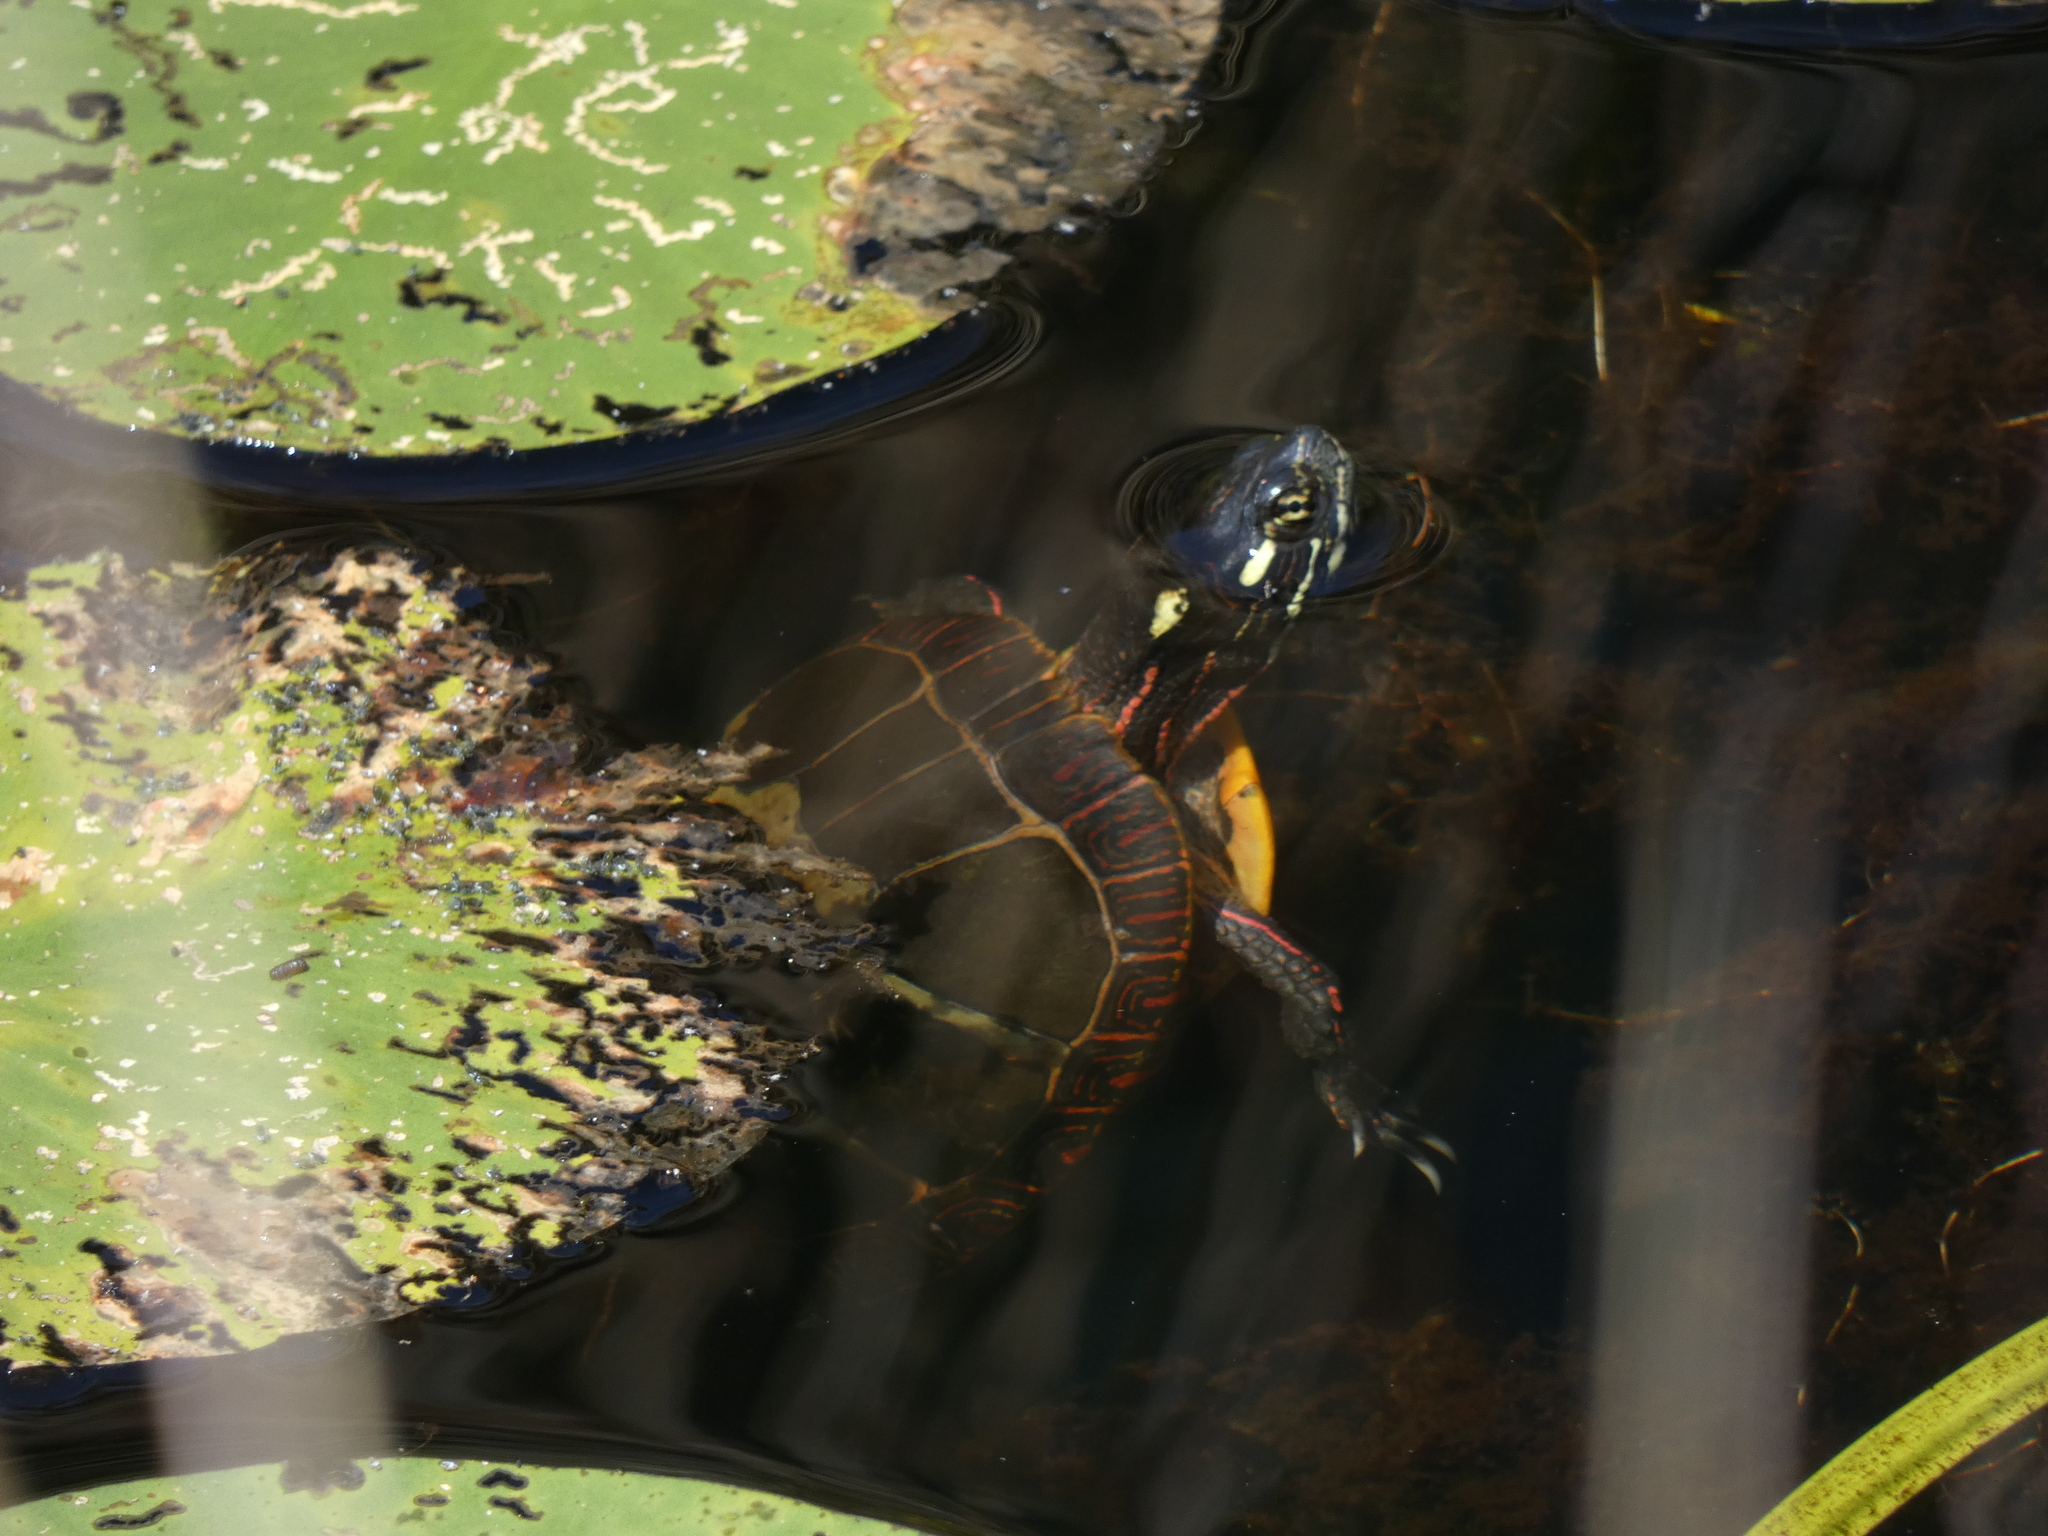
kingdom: Animalia
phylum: Chordata
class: Testudines
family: Emydidae
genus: Chrysemys
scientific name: Chrysemys picta
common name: Painted turtle
